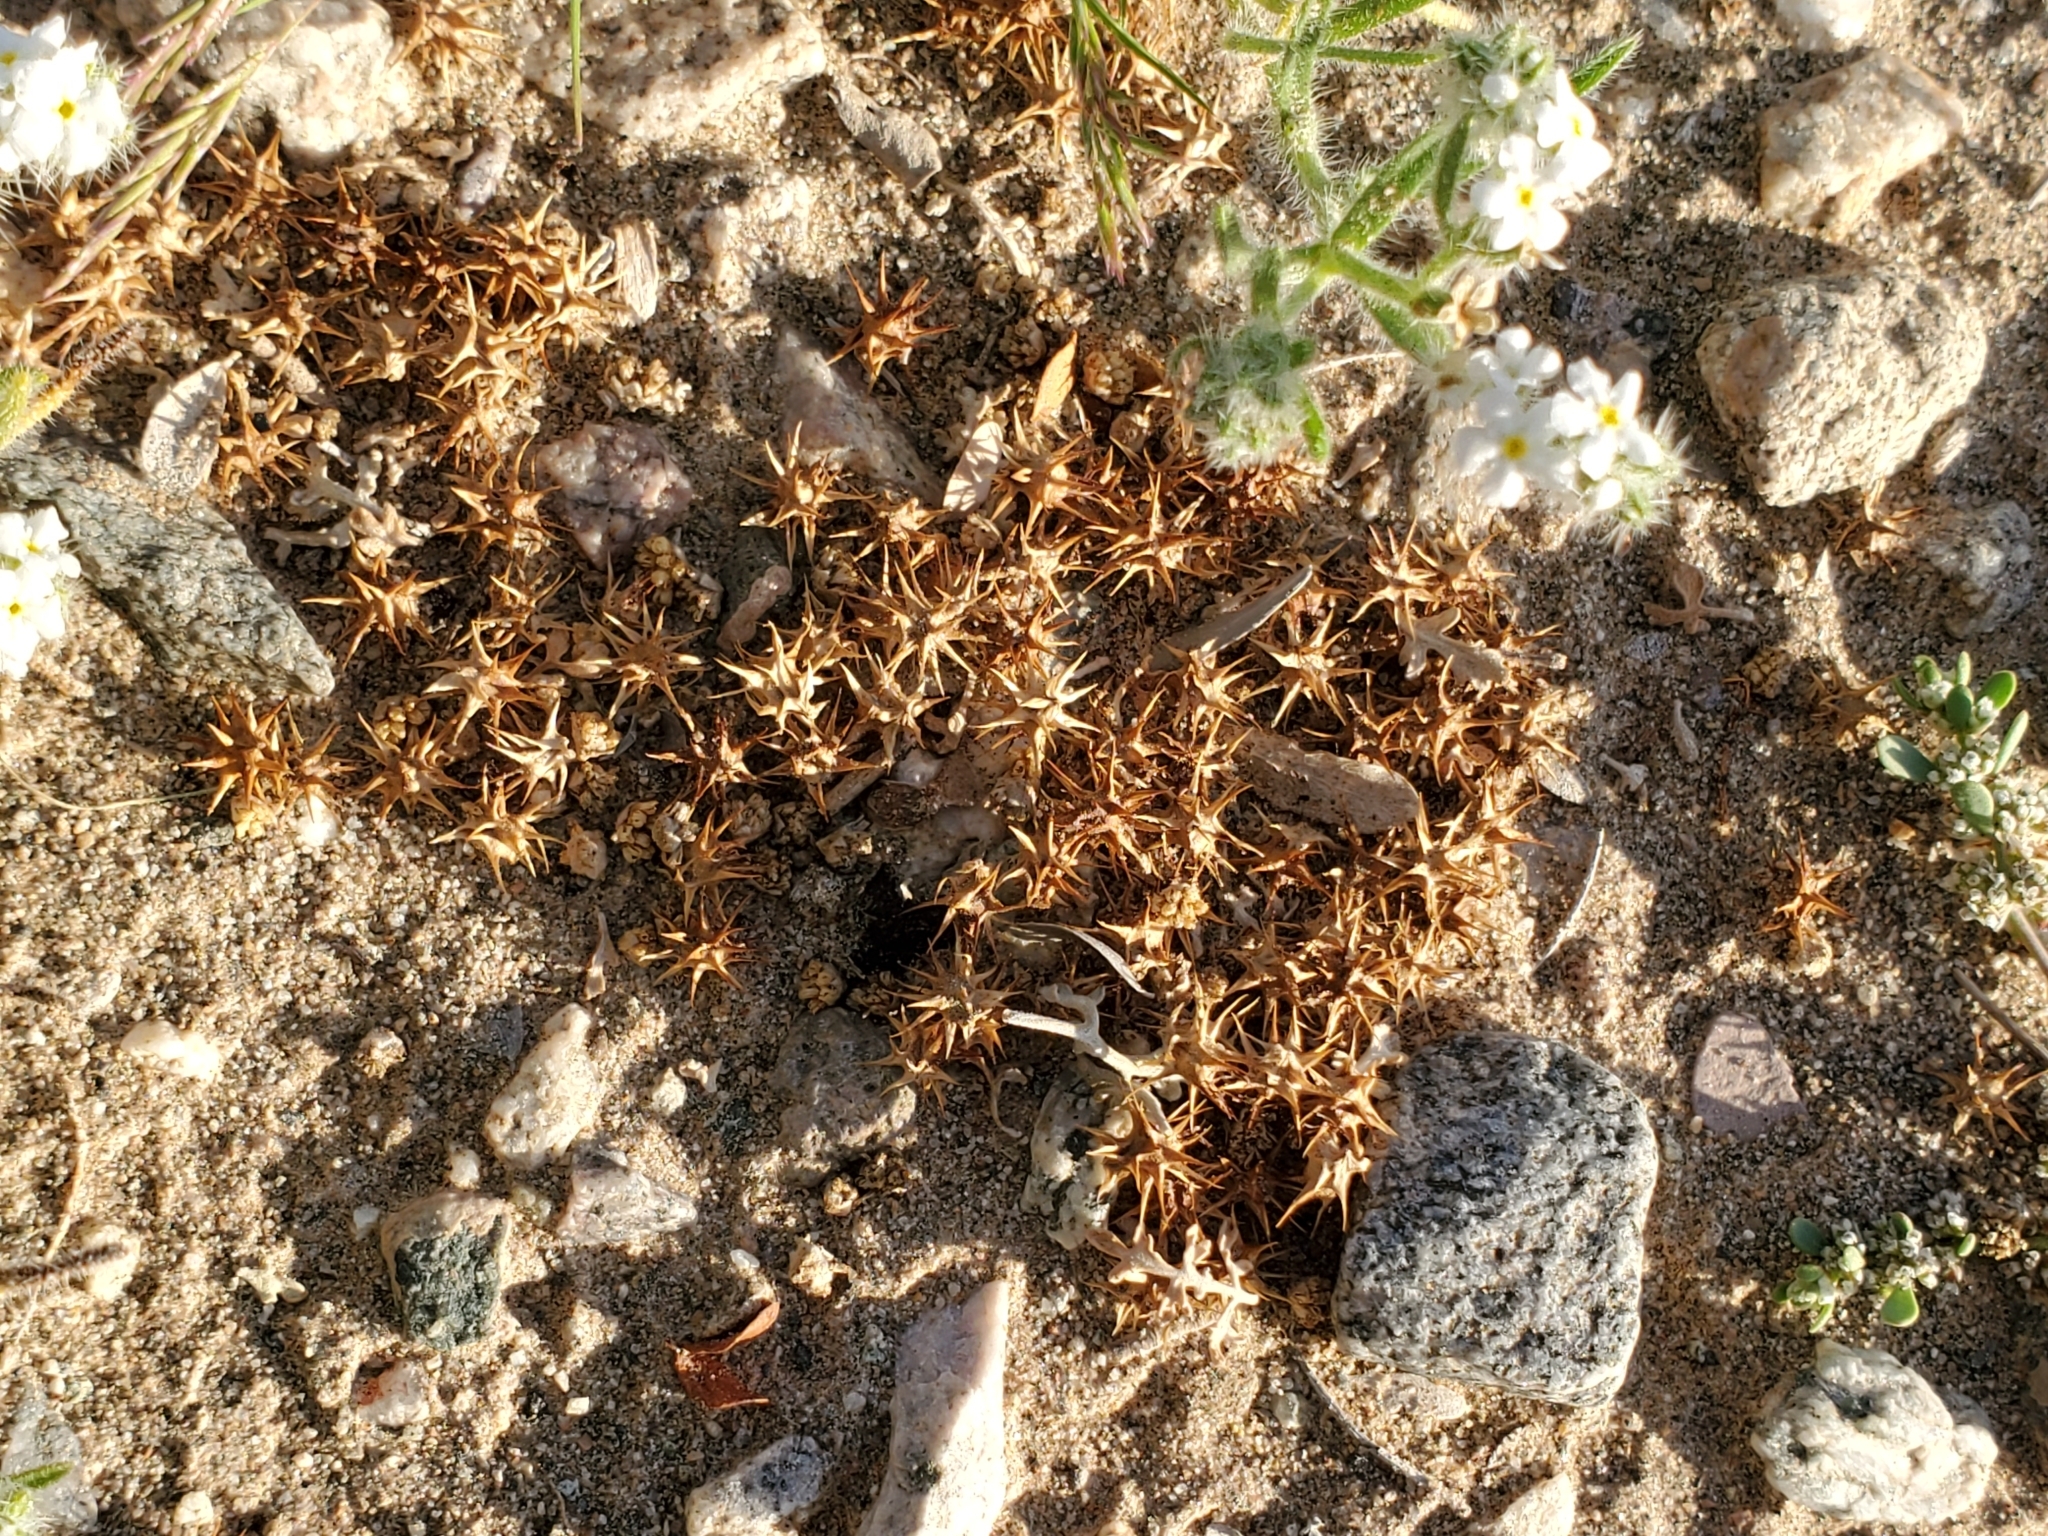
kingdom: Plantae
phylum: Tracheophyta
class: Magnoliopsida
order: Asterales
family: Asteraceae
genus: Ambrosia
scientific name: Ambrosia dumosa
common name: Bur-sage
